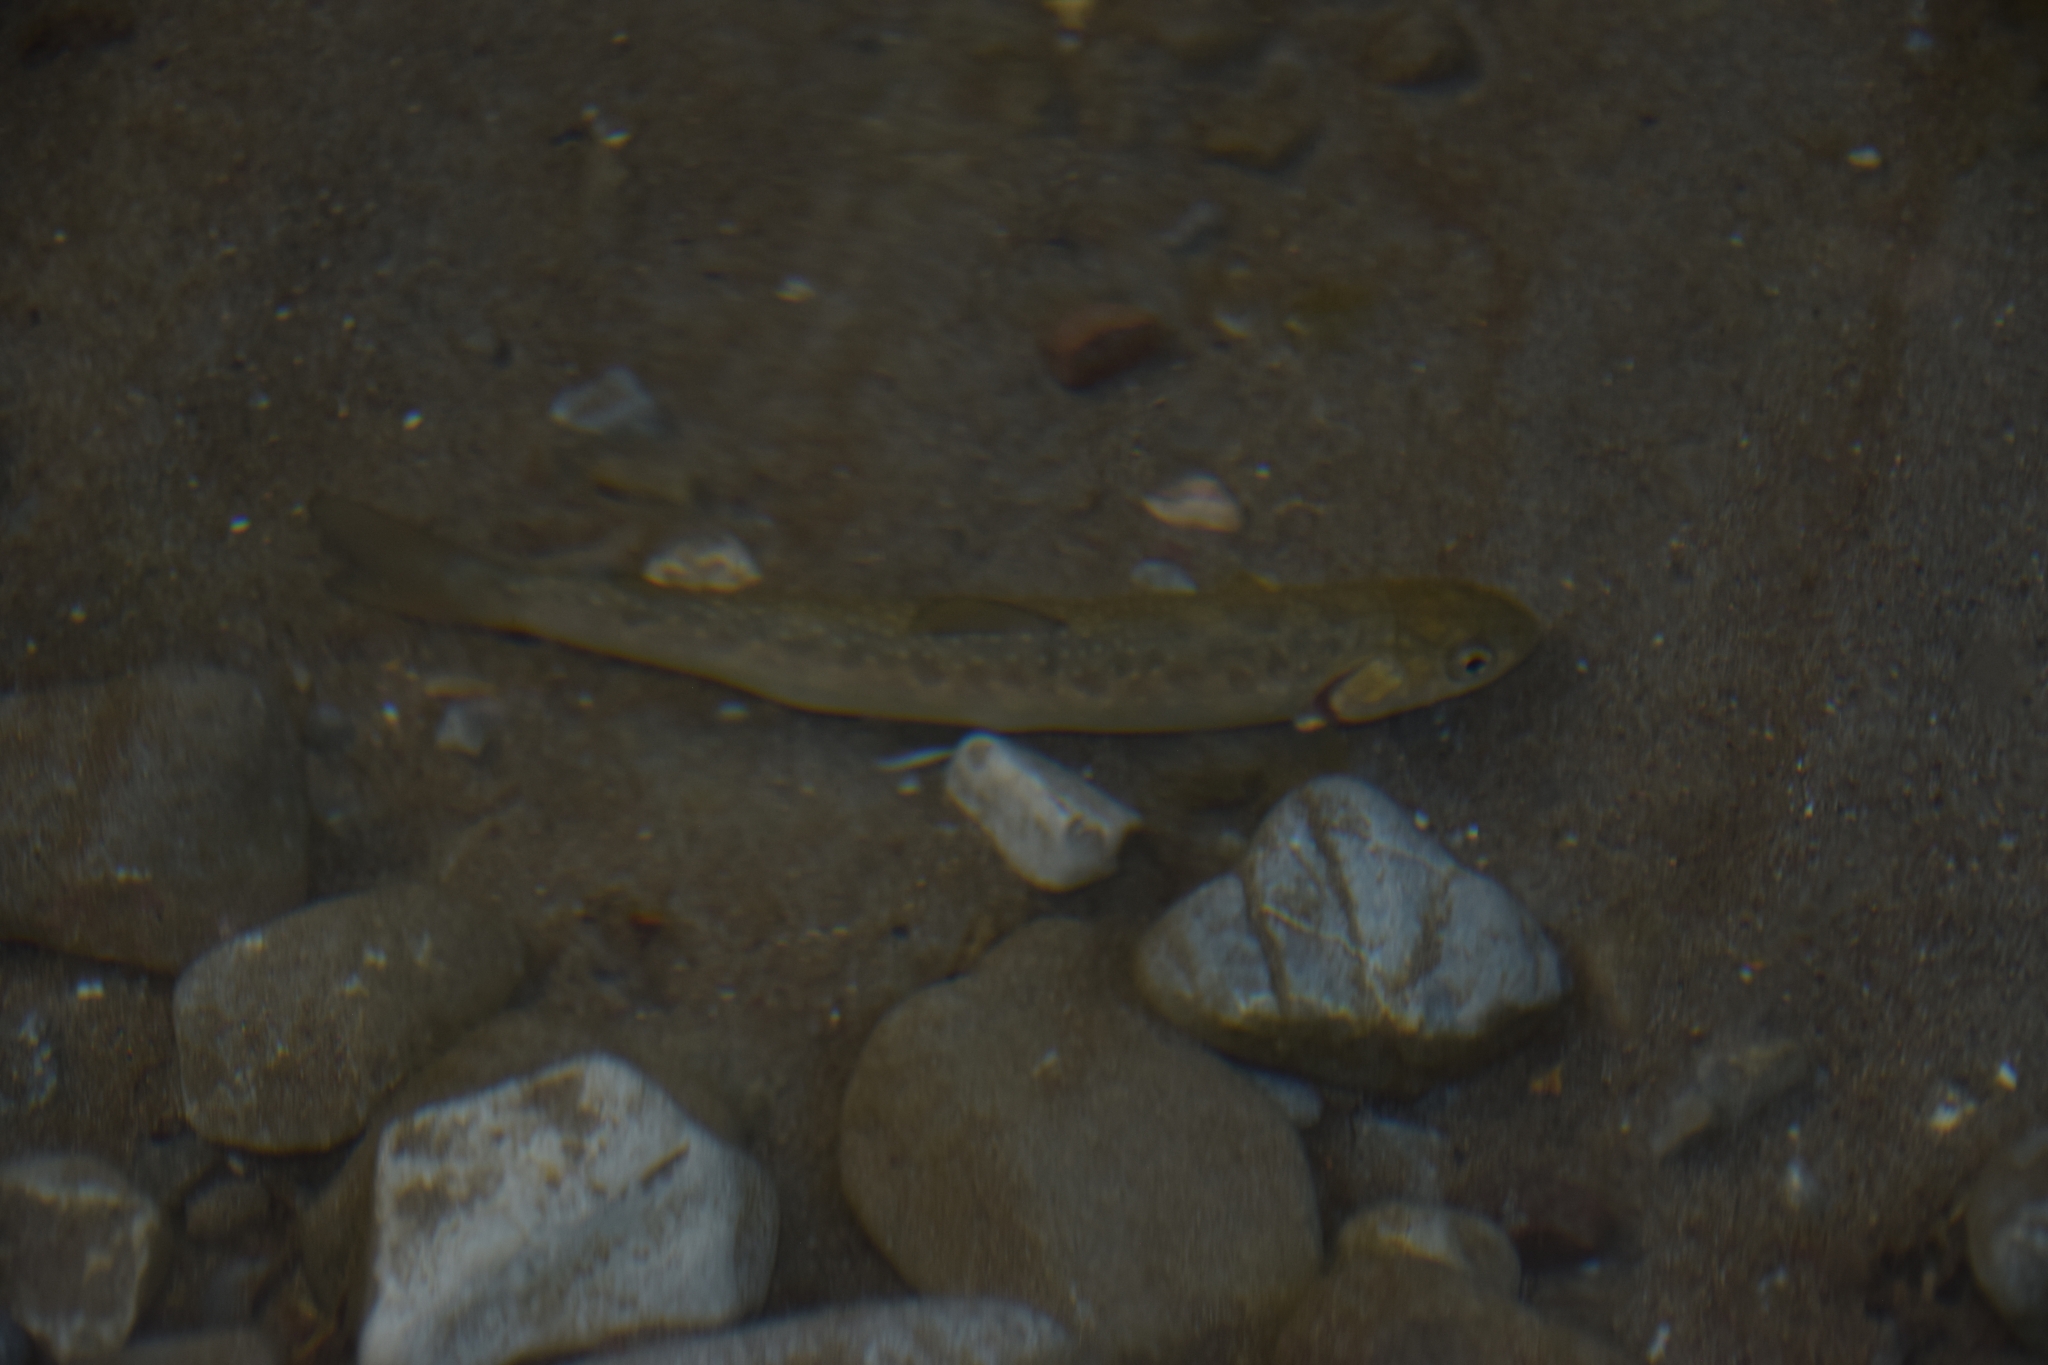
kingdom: Animalia
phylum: Chordata
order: Salmoniformes
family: Salmonidae
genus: Salvelinus
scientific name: Salvelinus confluentus
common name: Bull trout
